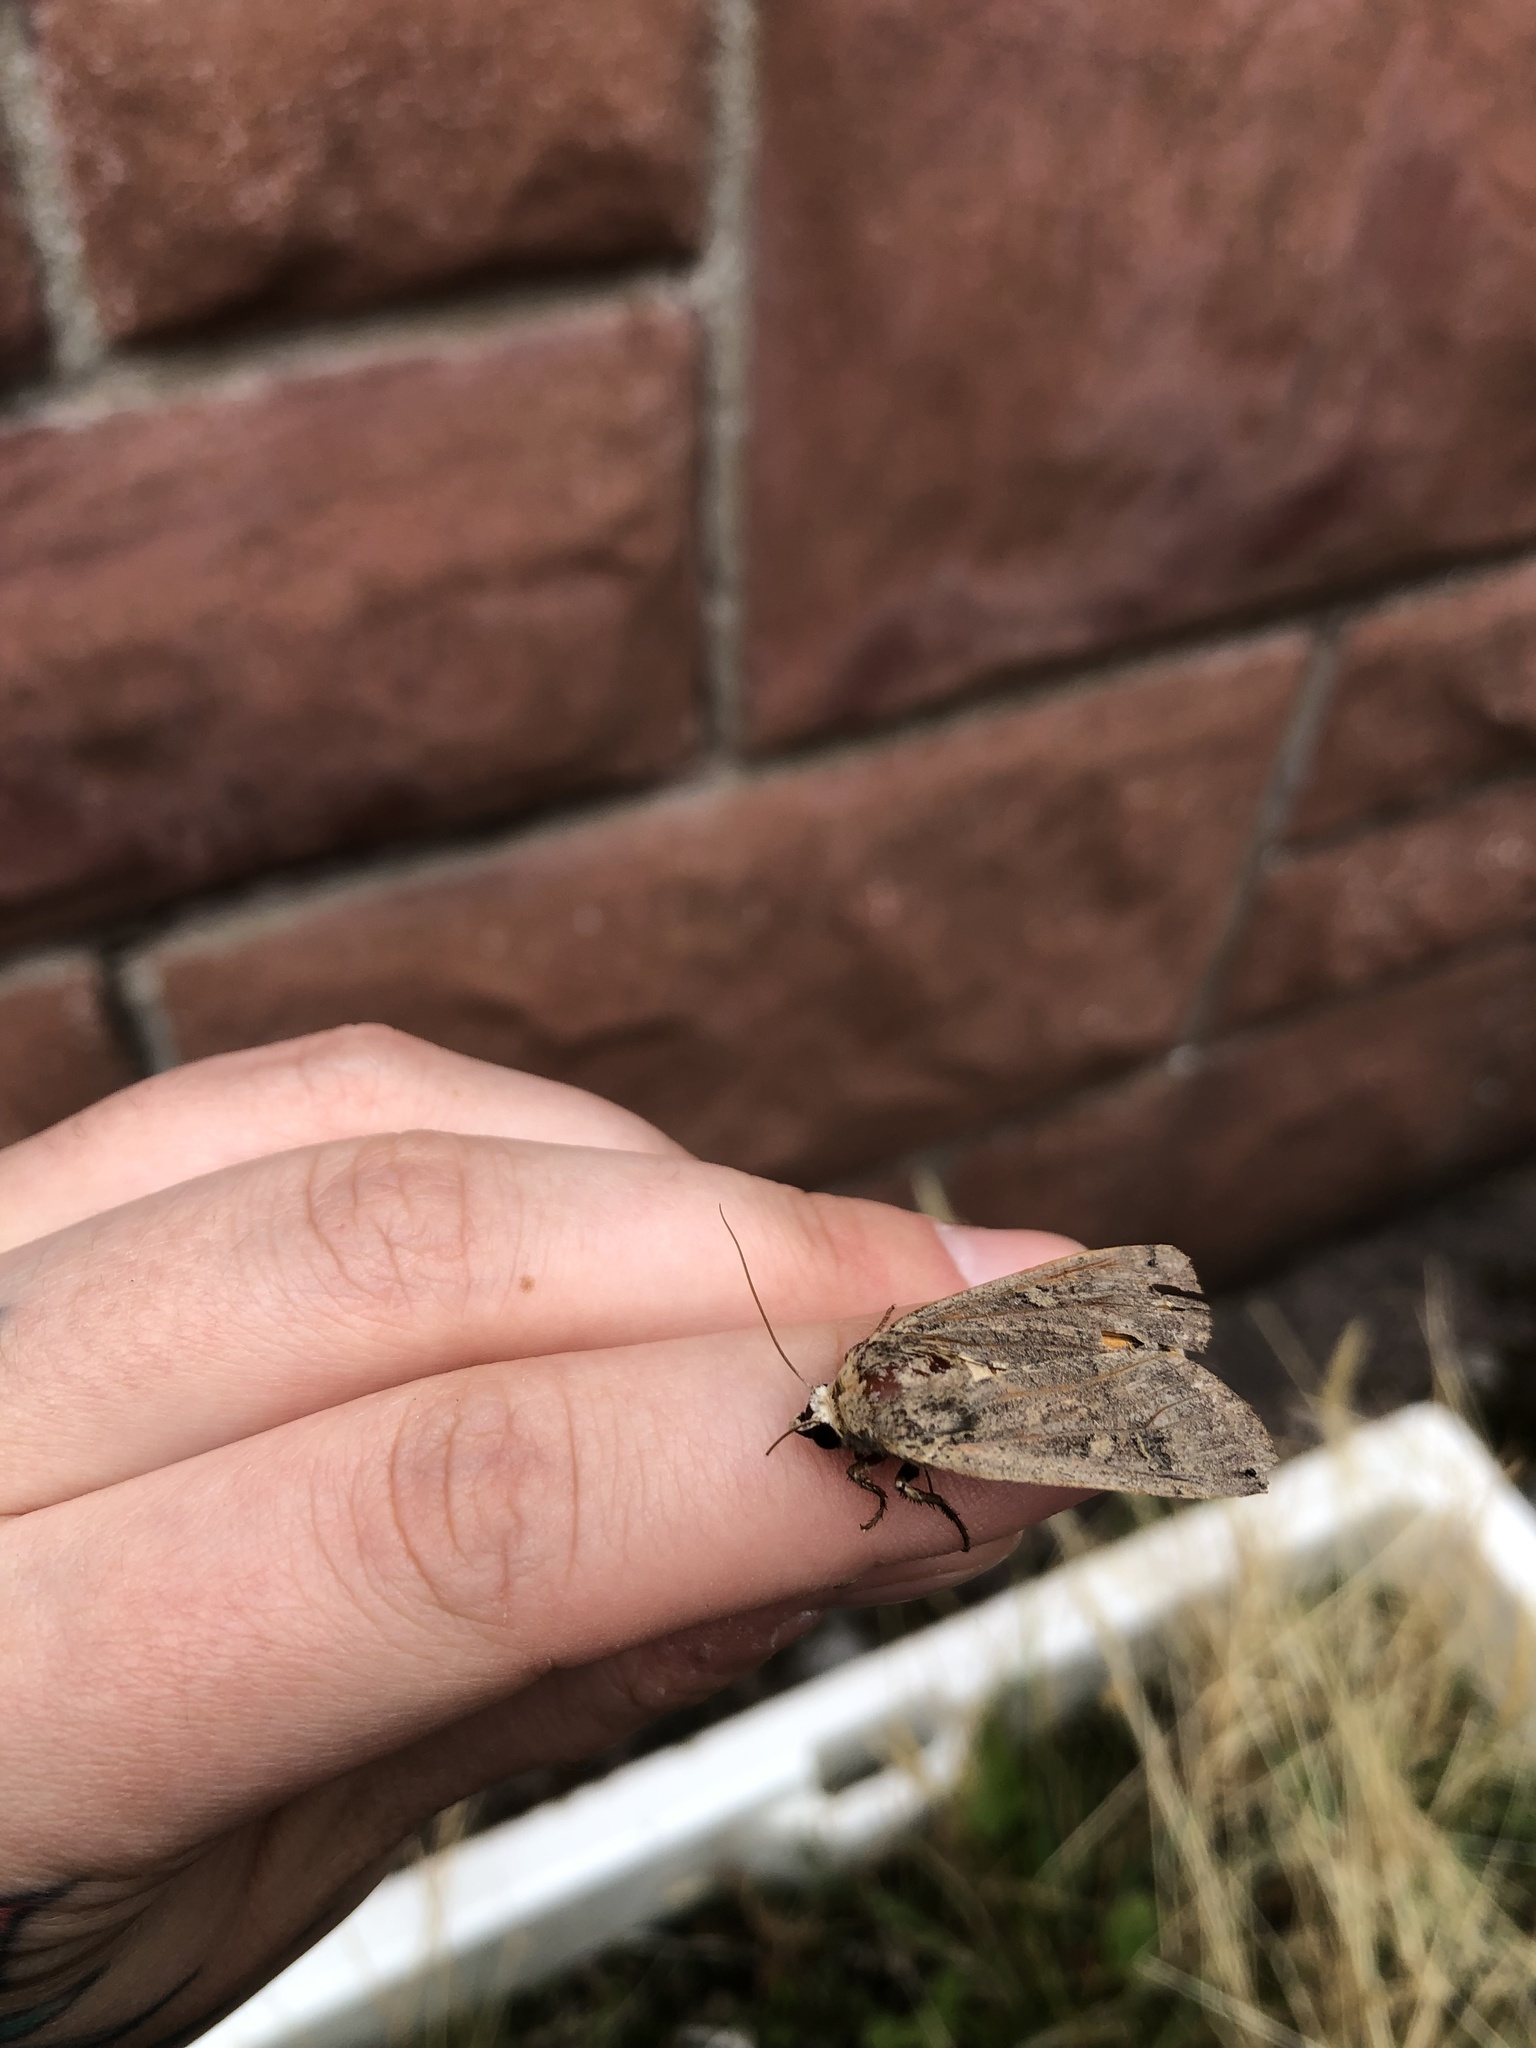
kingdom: Animalia
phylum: Arthropoda
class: Insecta
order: Lepidoptera
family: Noctuidae
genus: Noctua
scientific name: Noctua pronuba
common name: Large yellow underwing
